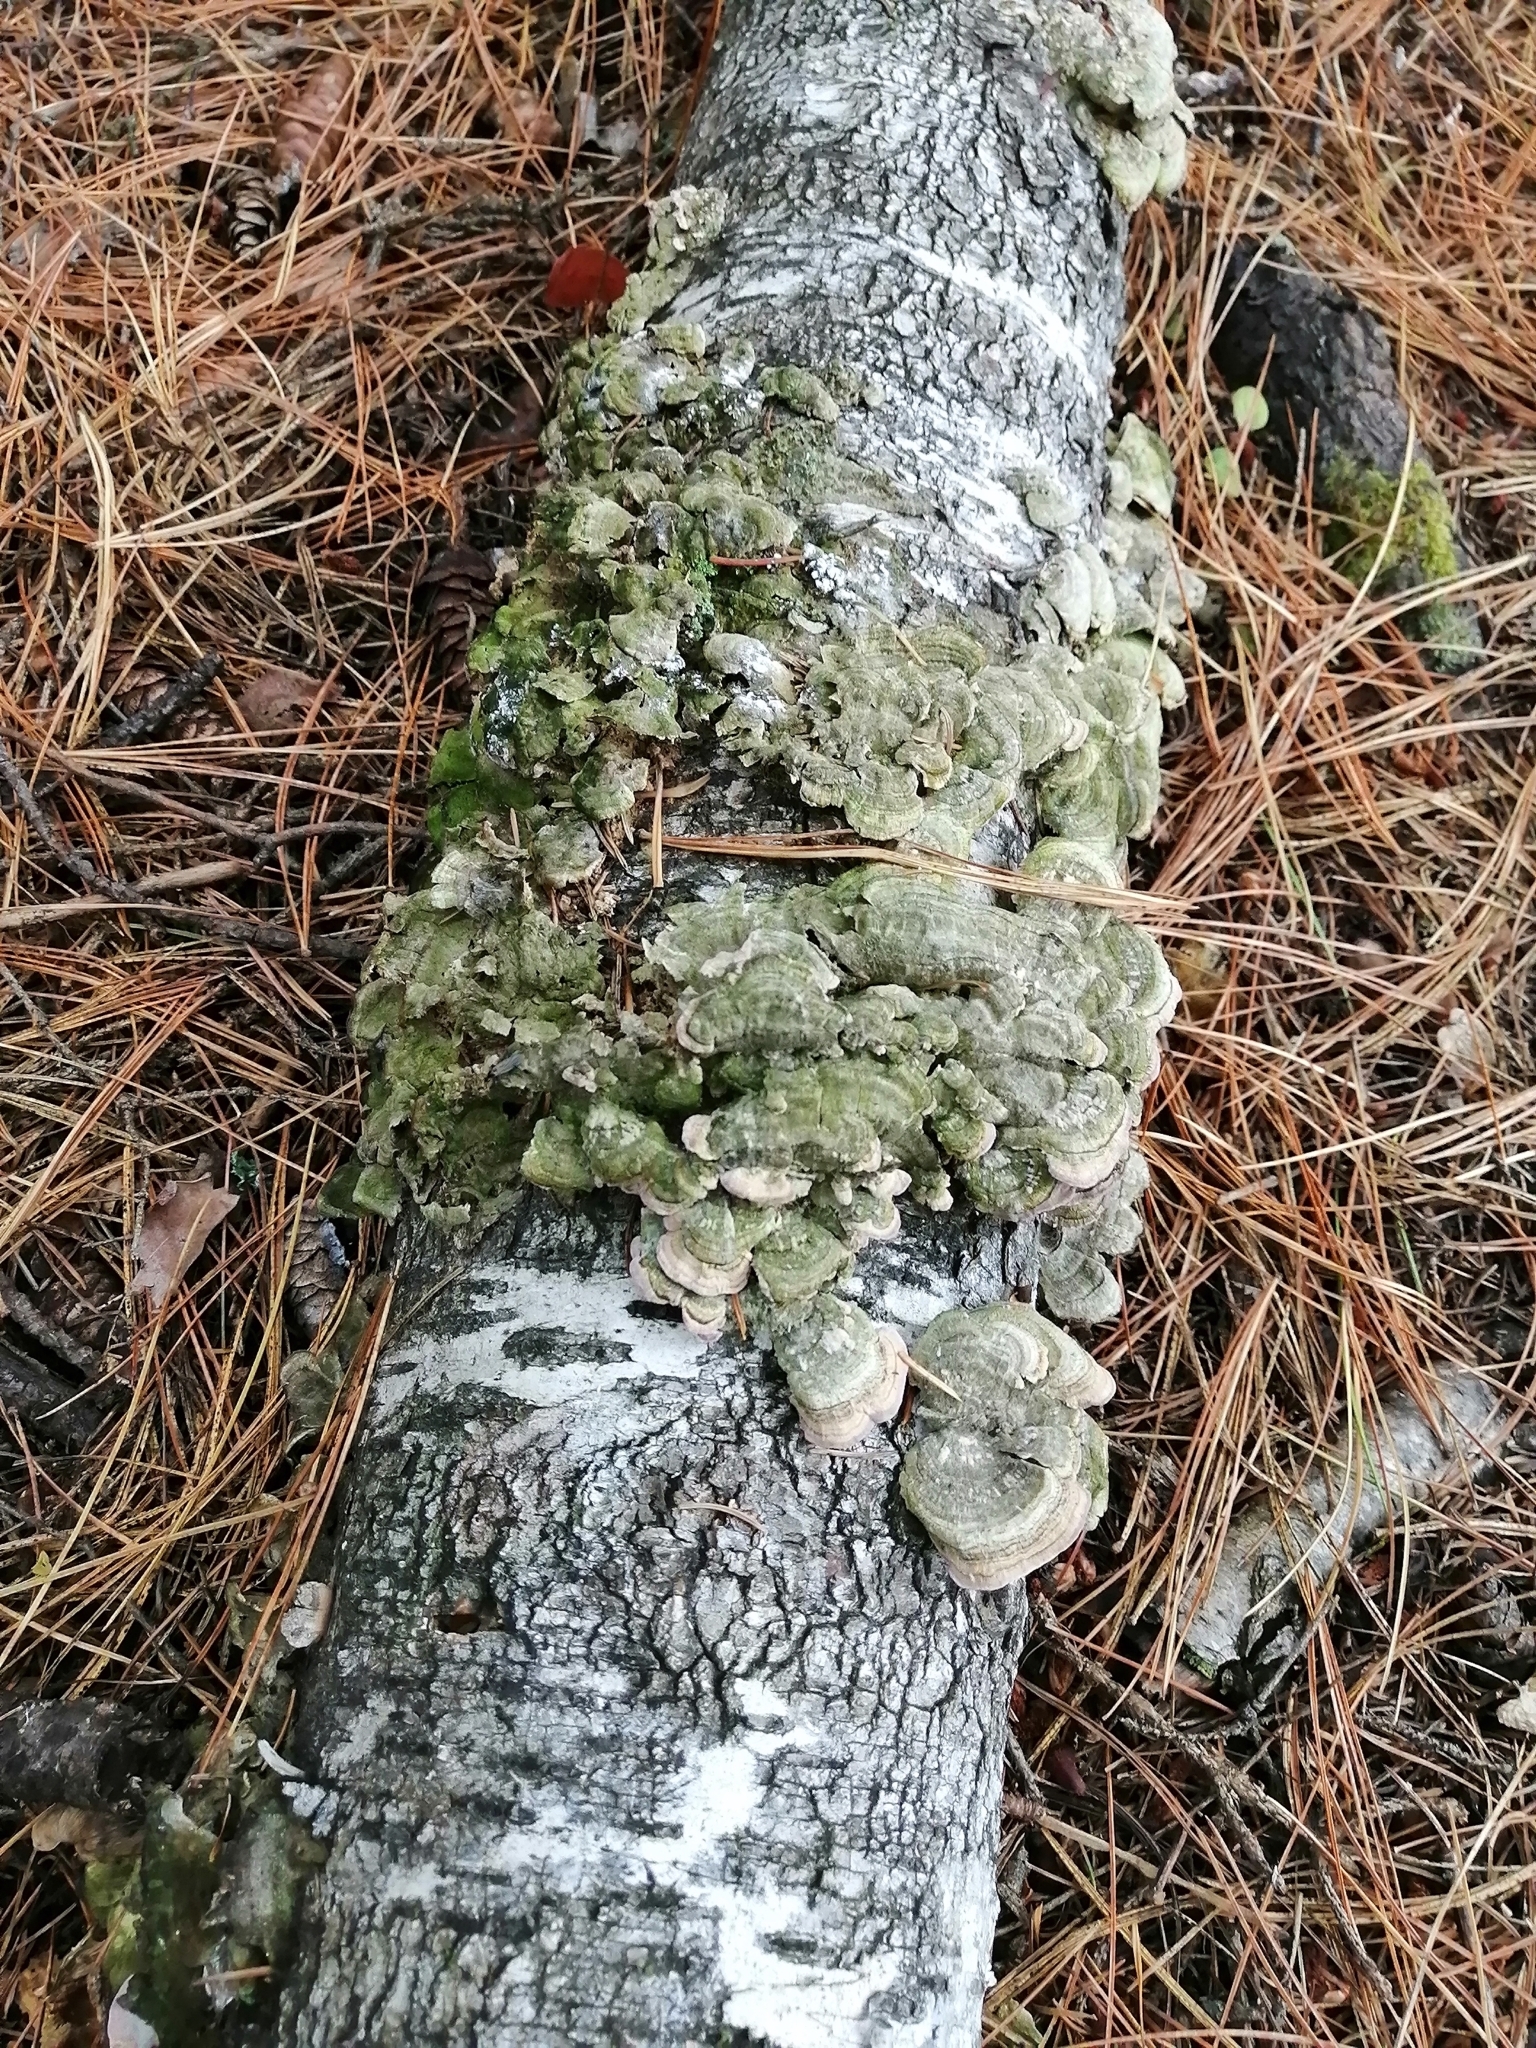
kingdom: Fungi
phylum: Basidiomycota
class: Agaricomycetes
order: Hymenochaetales
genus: Trichaptum
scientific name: Trichaptum biforme
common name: Violet-toothed polypore
